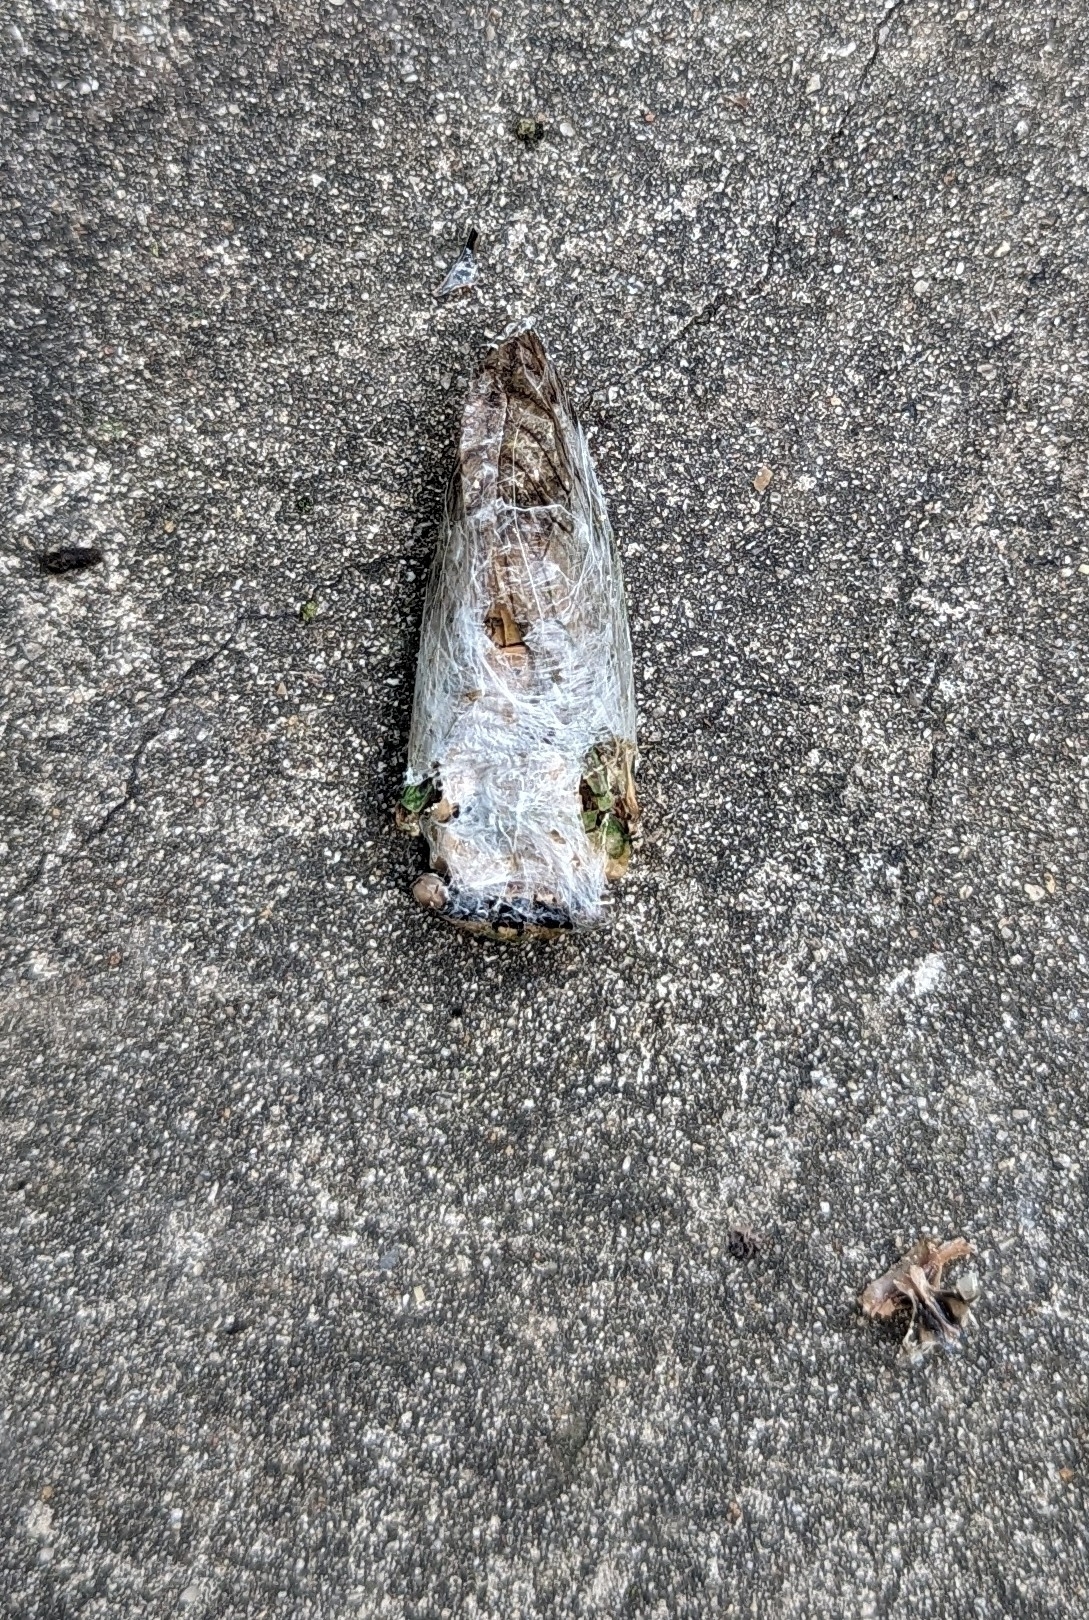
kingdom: Animalia
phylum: Arthropoda
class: Insecta
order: Hemiptera
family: Cicadidae
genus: Neotibicen
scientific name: Neotibicen superbus
